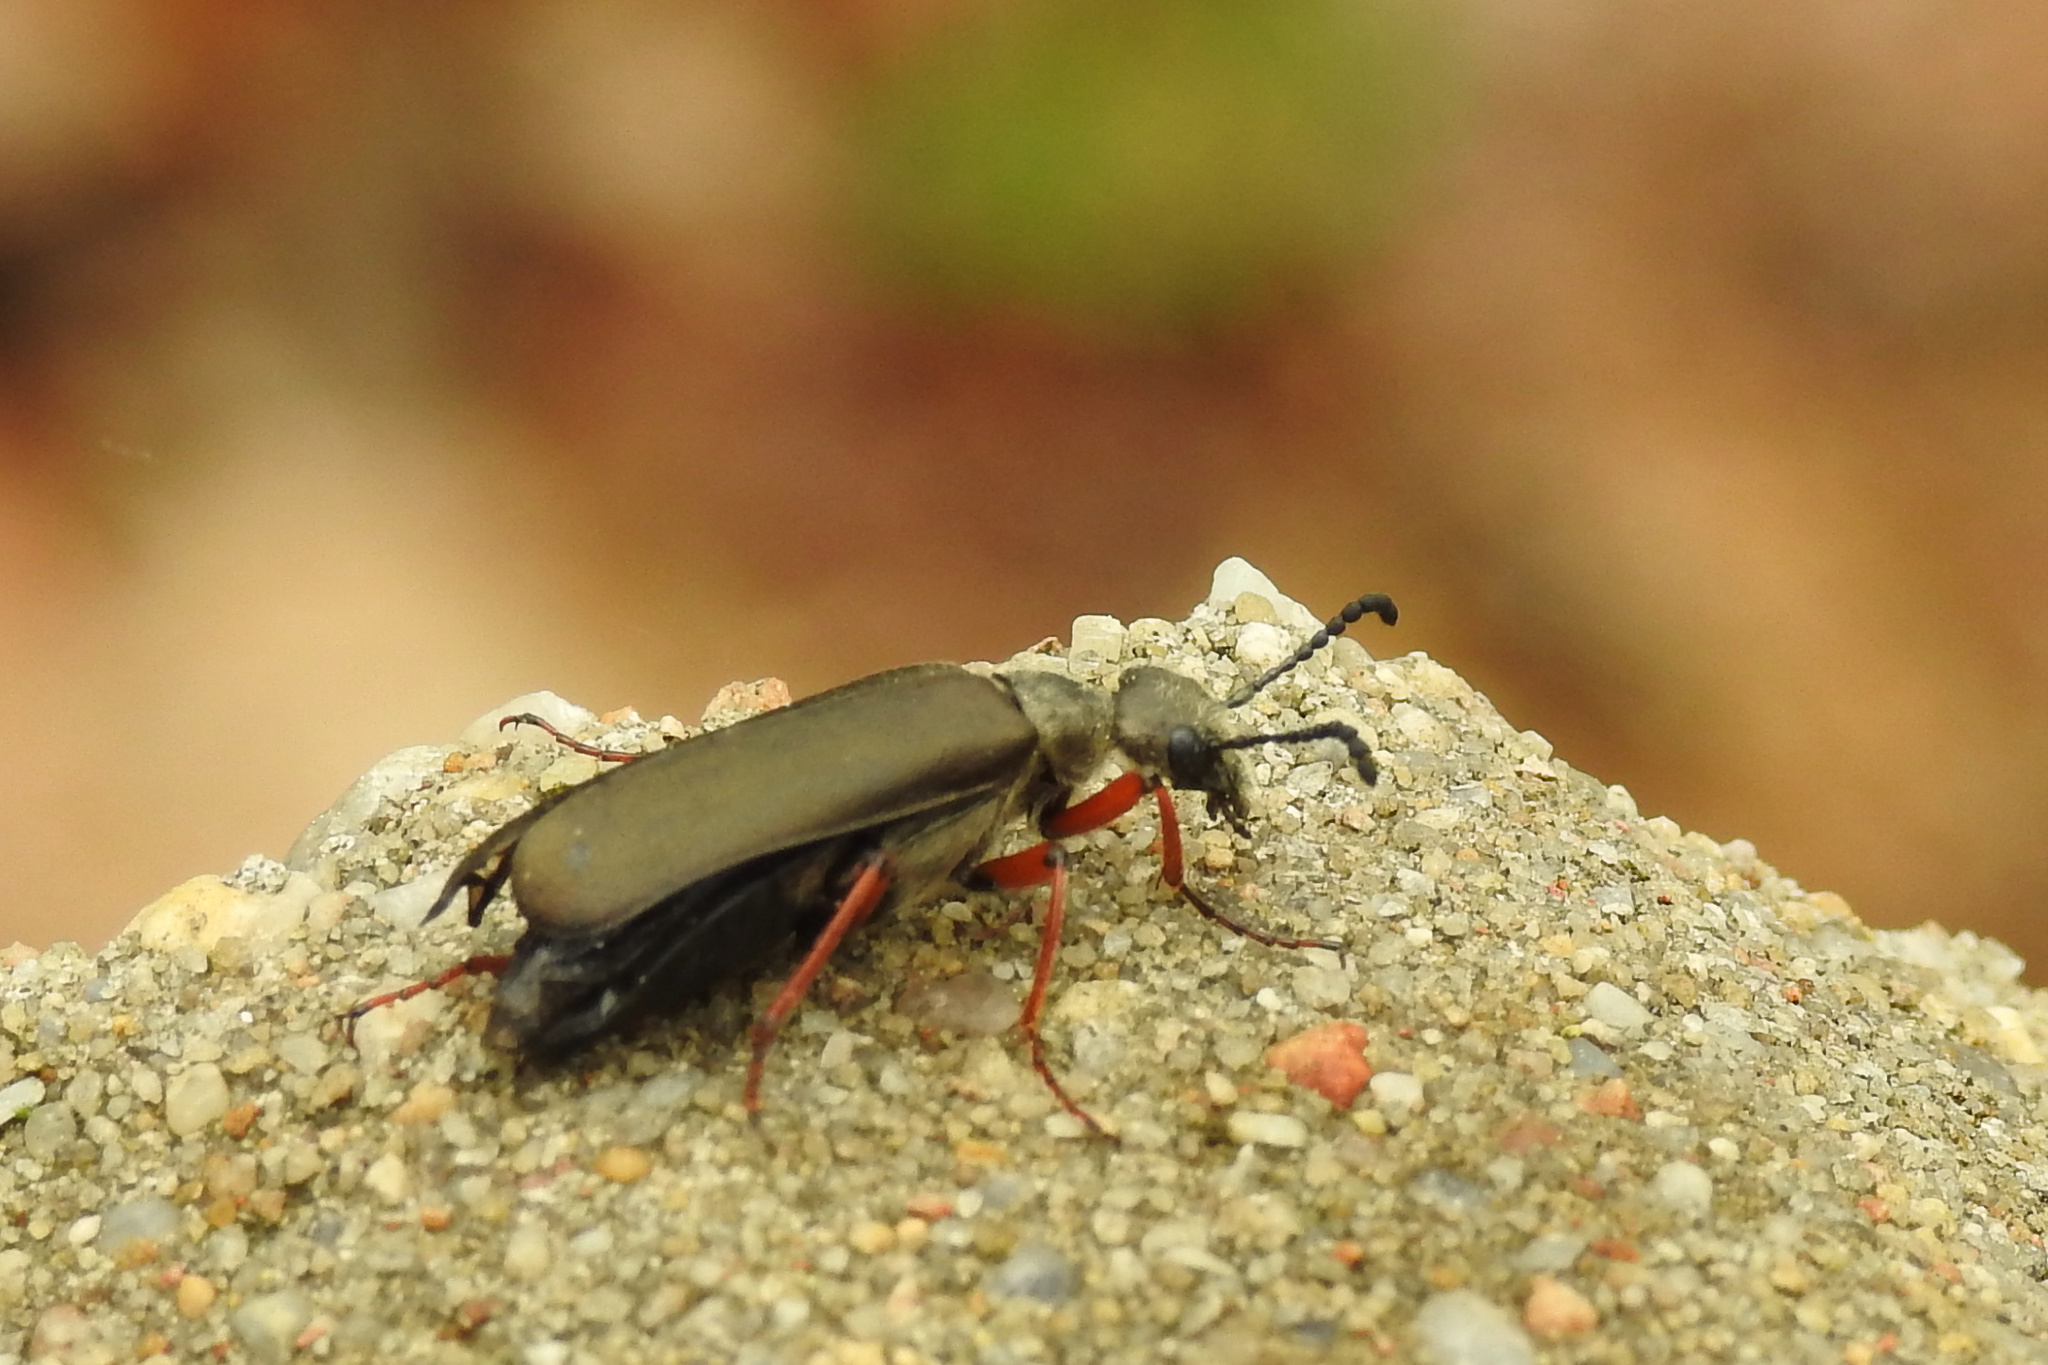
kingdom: Animalia
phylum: Arthropoda
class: Insecta
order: Coleoptera
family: Meloidae
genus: Lytta
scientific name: Lytta aenea
